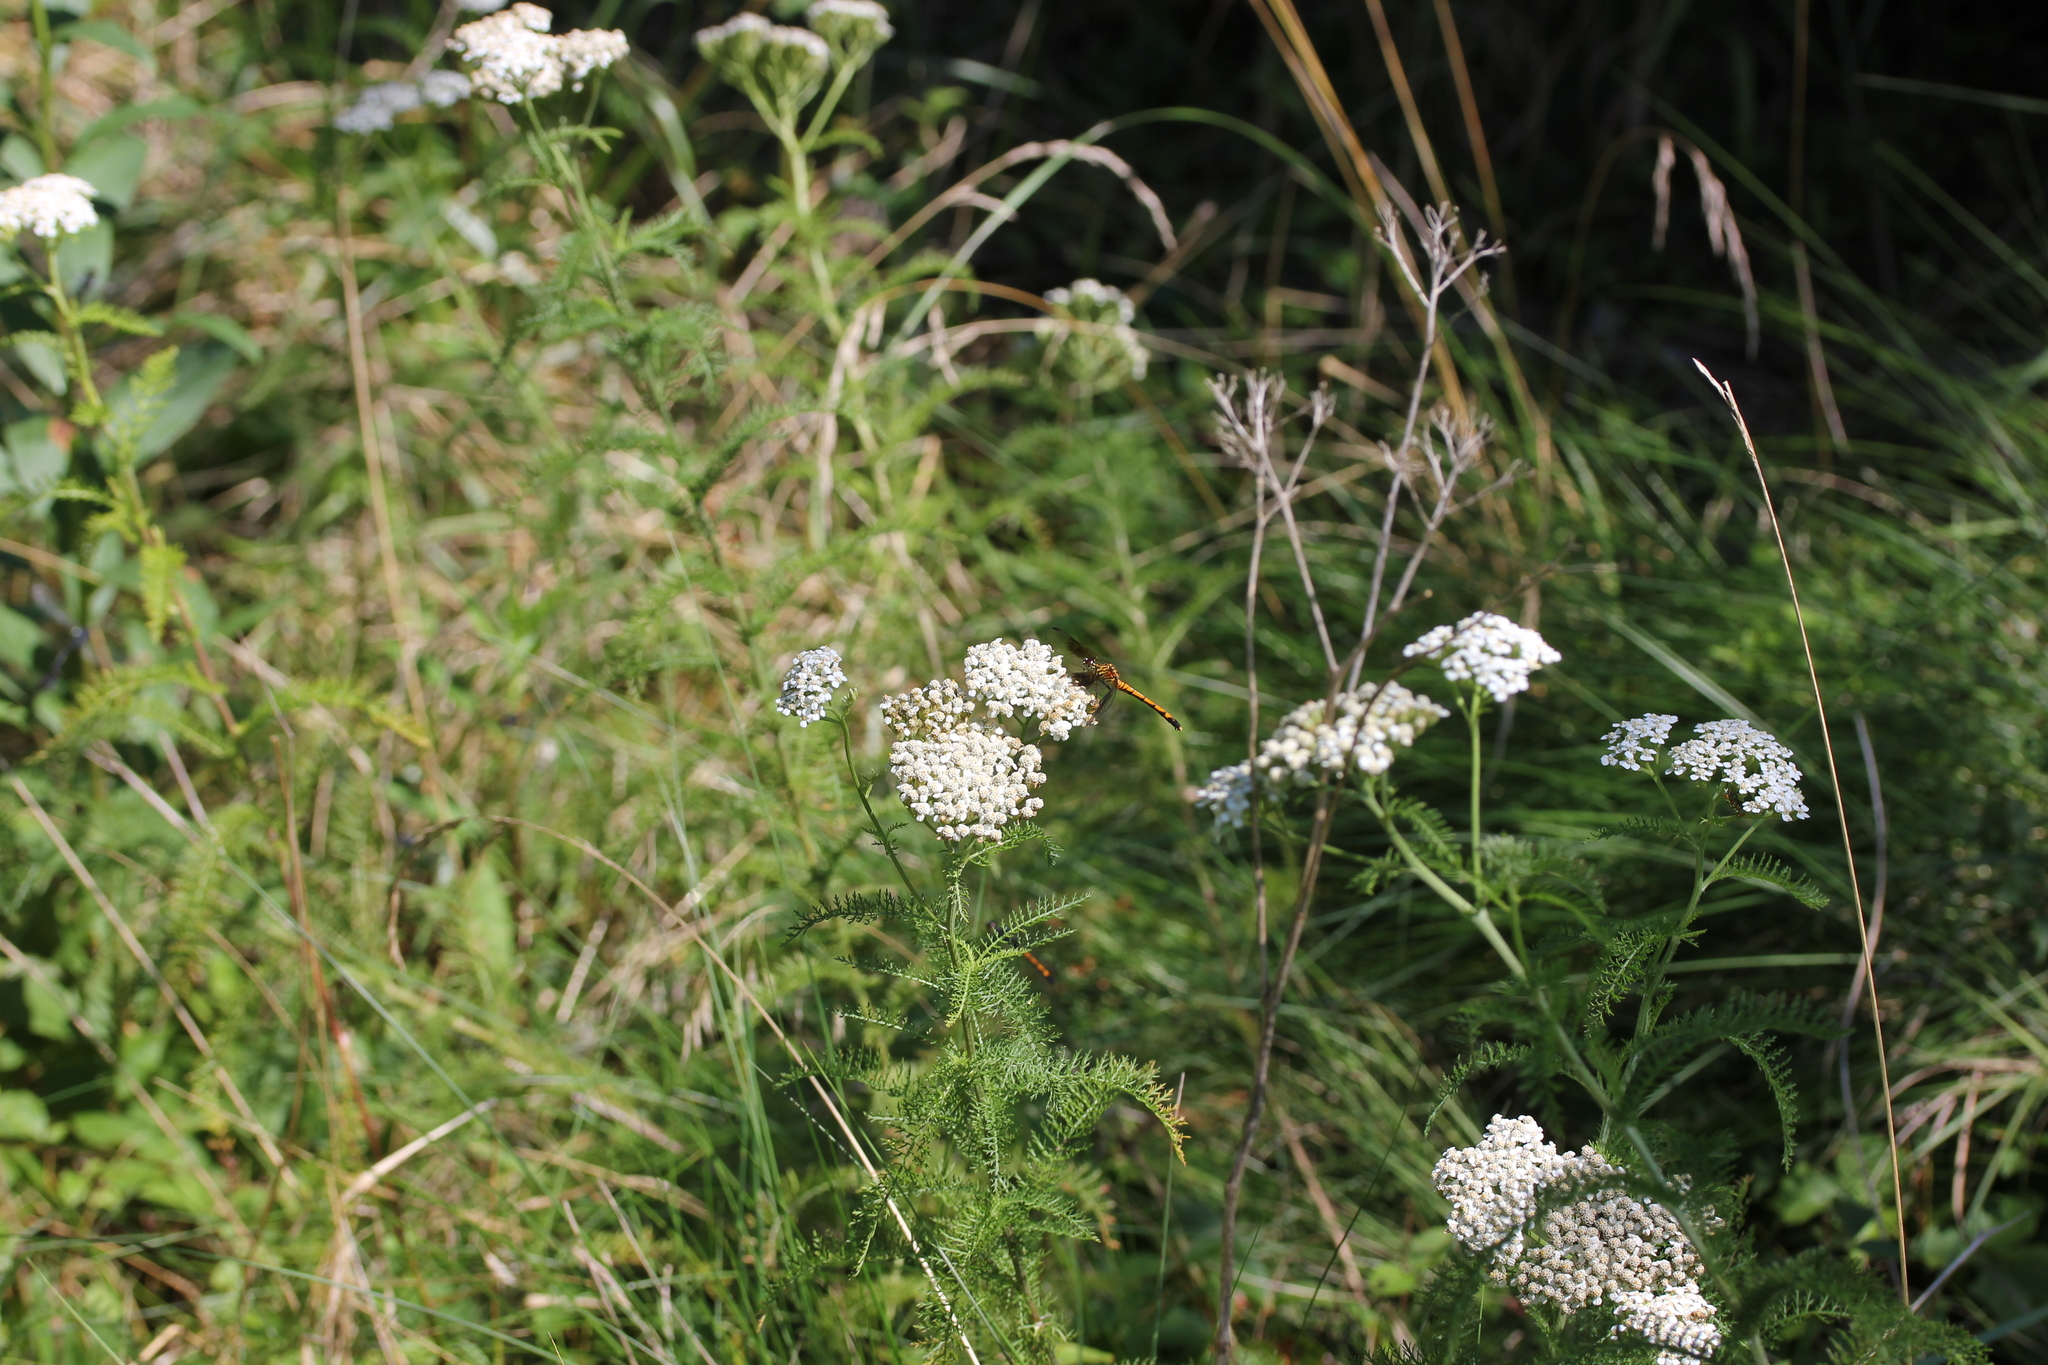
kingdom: Plantae
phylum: Tracheophyta
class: Magnoliopsida
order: Asterales
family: Asteraceae
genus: Achillea
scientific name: Achillea millefolium
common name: Yarrow
